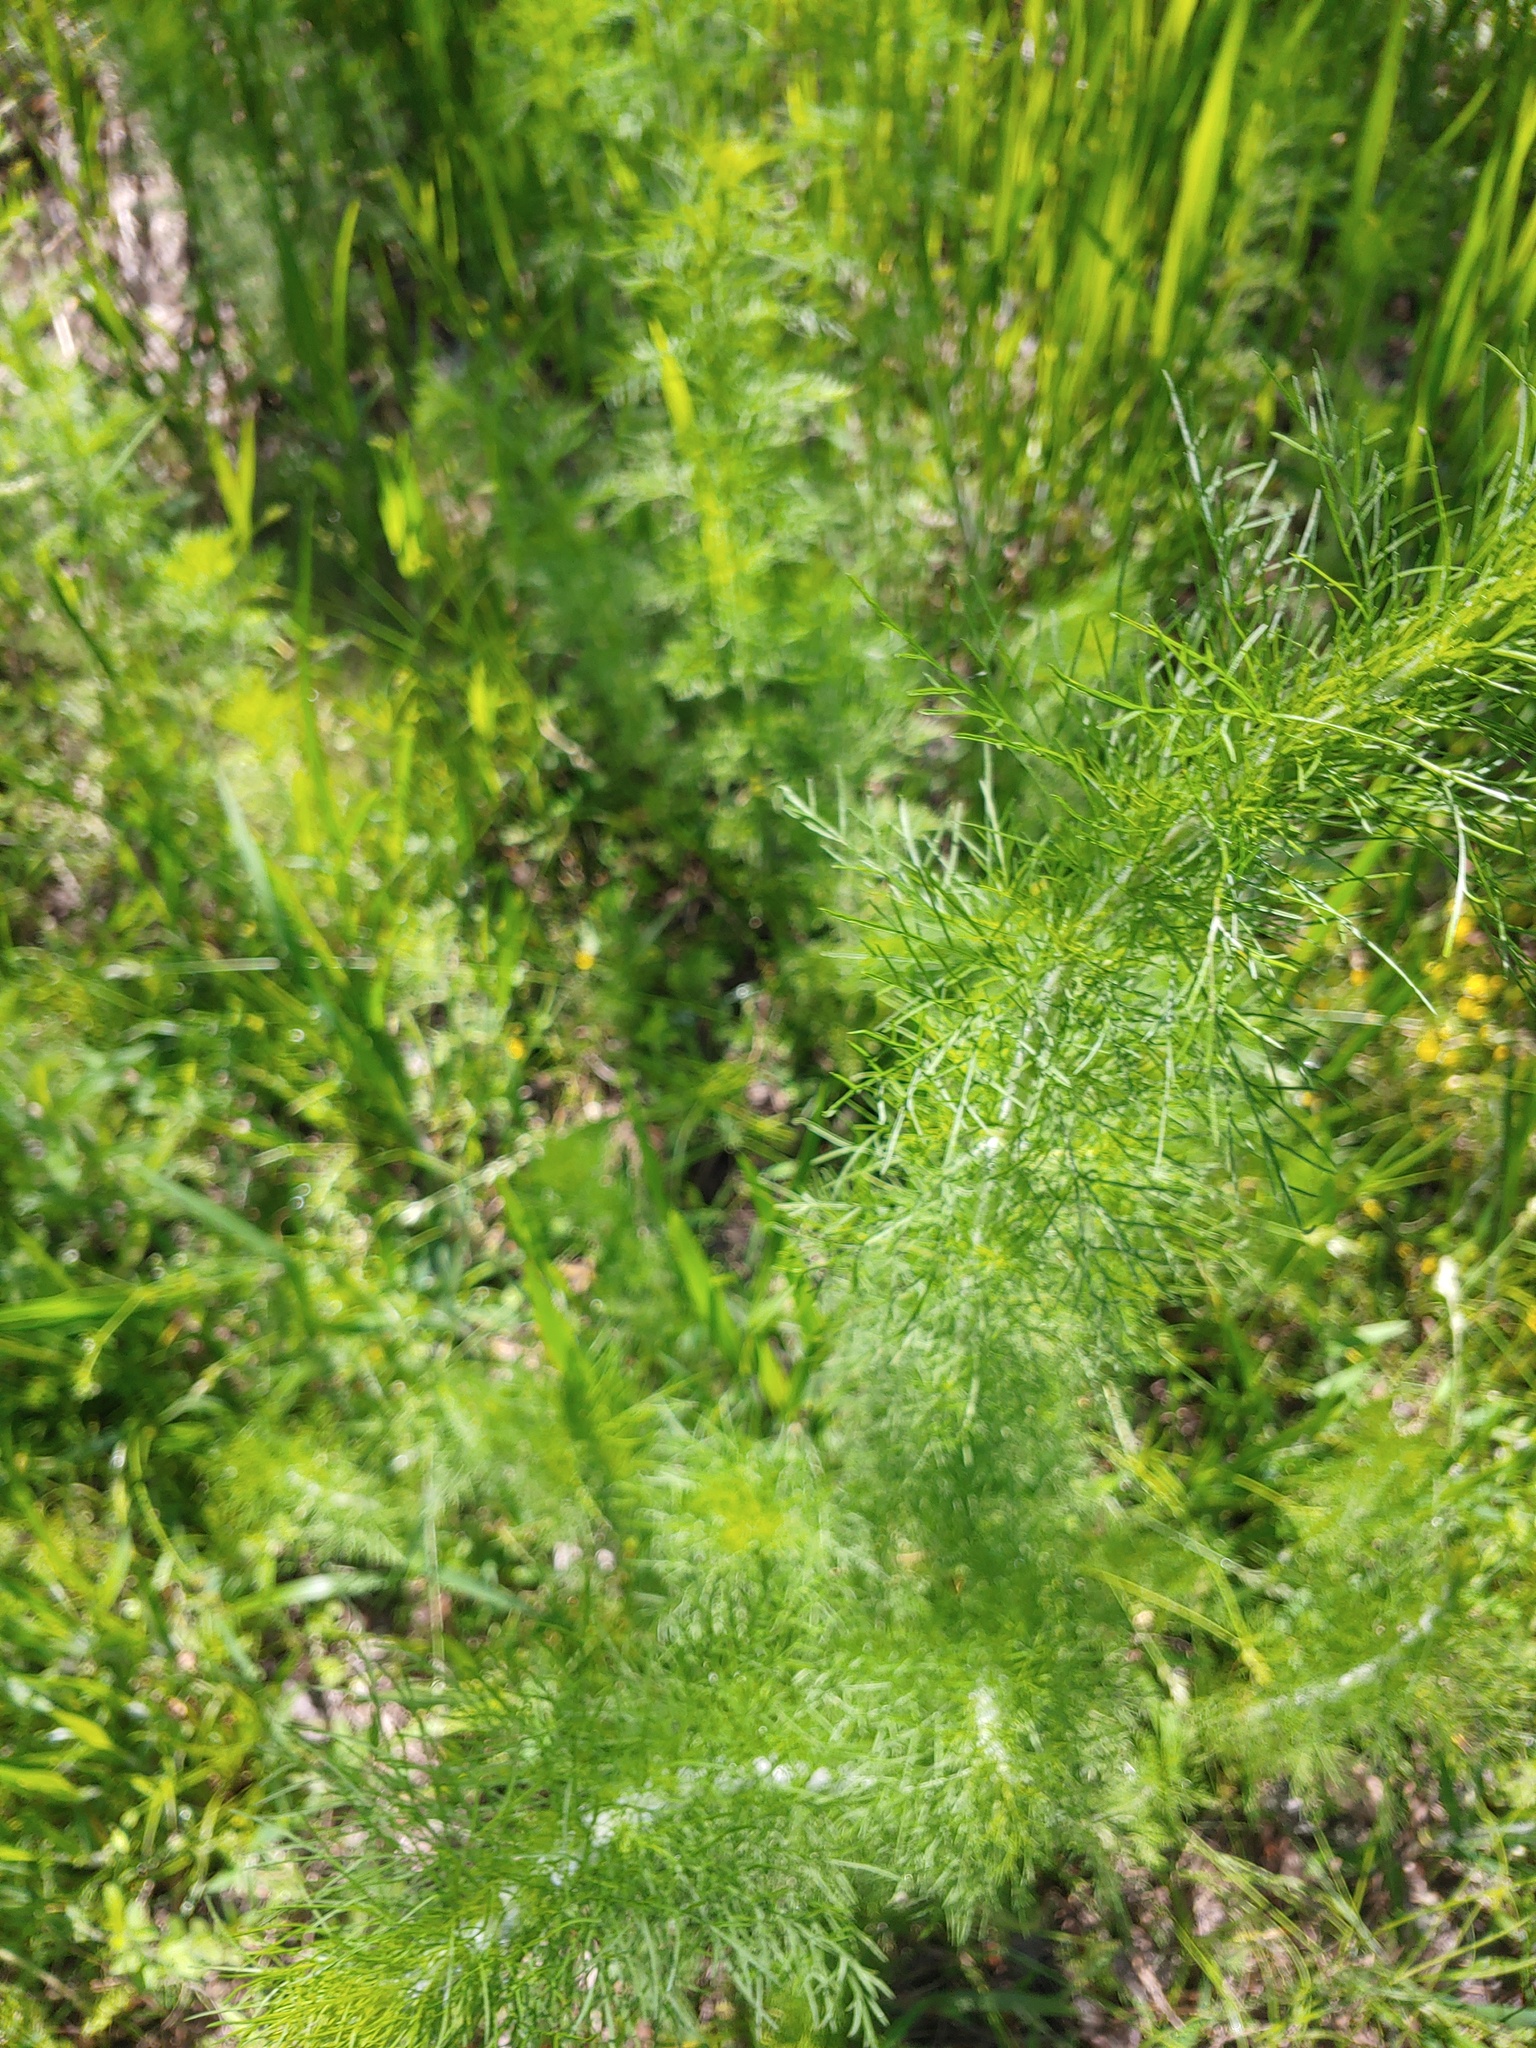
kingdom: Plantae
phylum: Tracheophyta
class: Magnoliopsida
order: Asterales
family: Asteraceae
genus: Eupatorium
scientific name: Eupatorium capillifolium
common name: Dog-fennel
